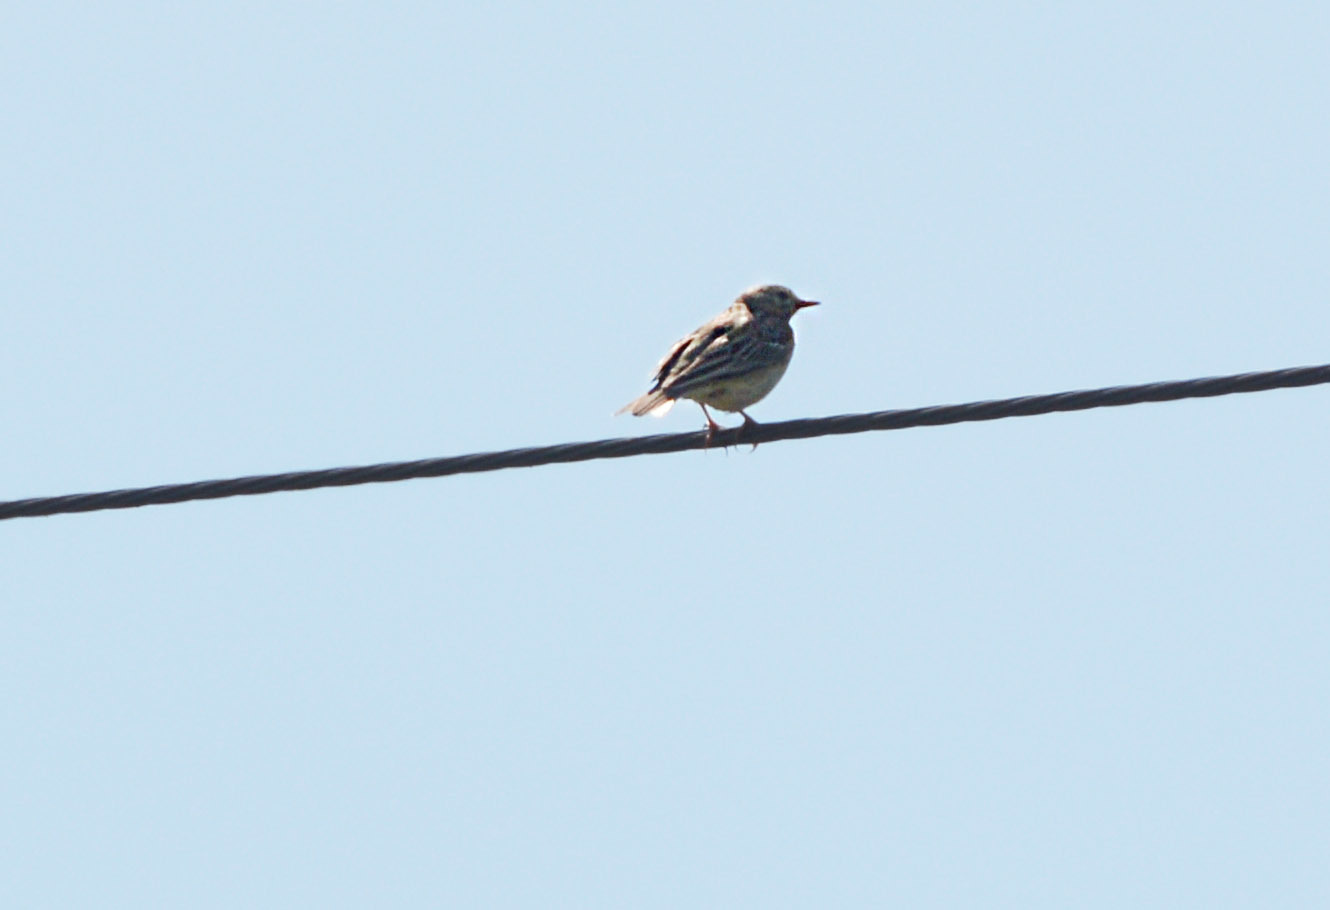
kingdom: Animalia
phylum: Chordata
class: Aves
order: Passeriformes
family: Motacillidae
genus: Anthus
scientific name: Anthus trivialis
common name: Tree pipit
